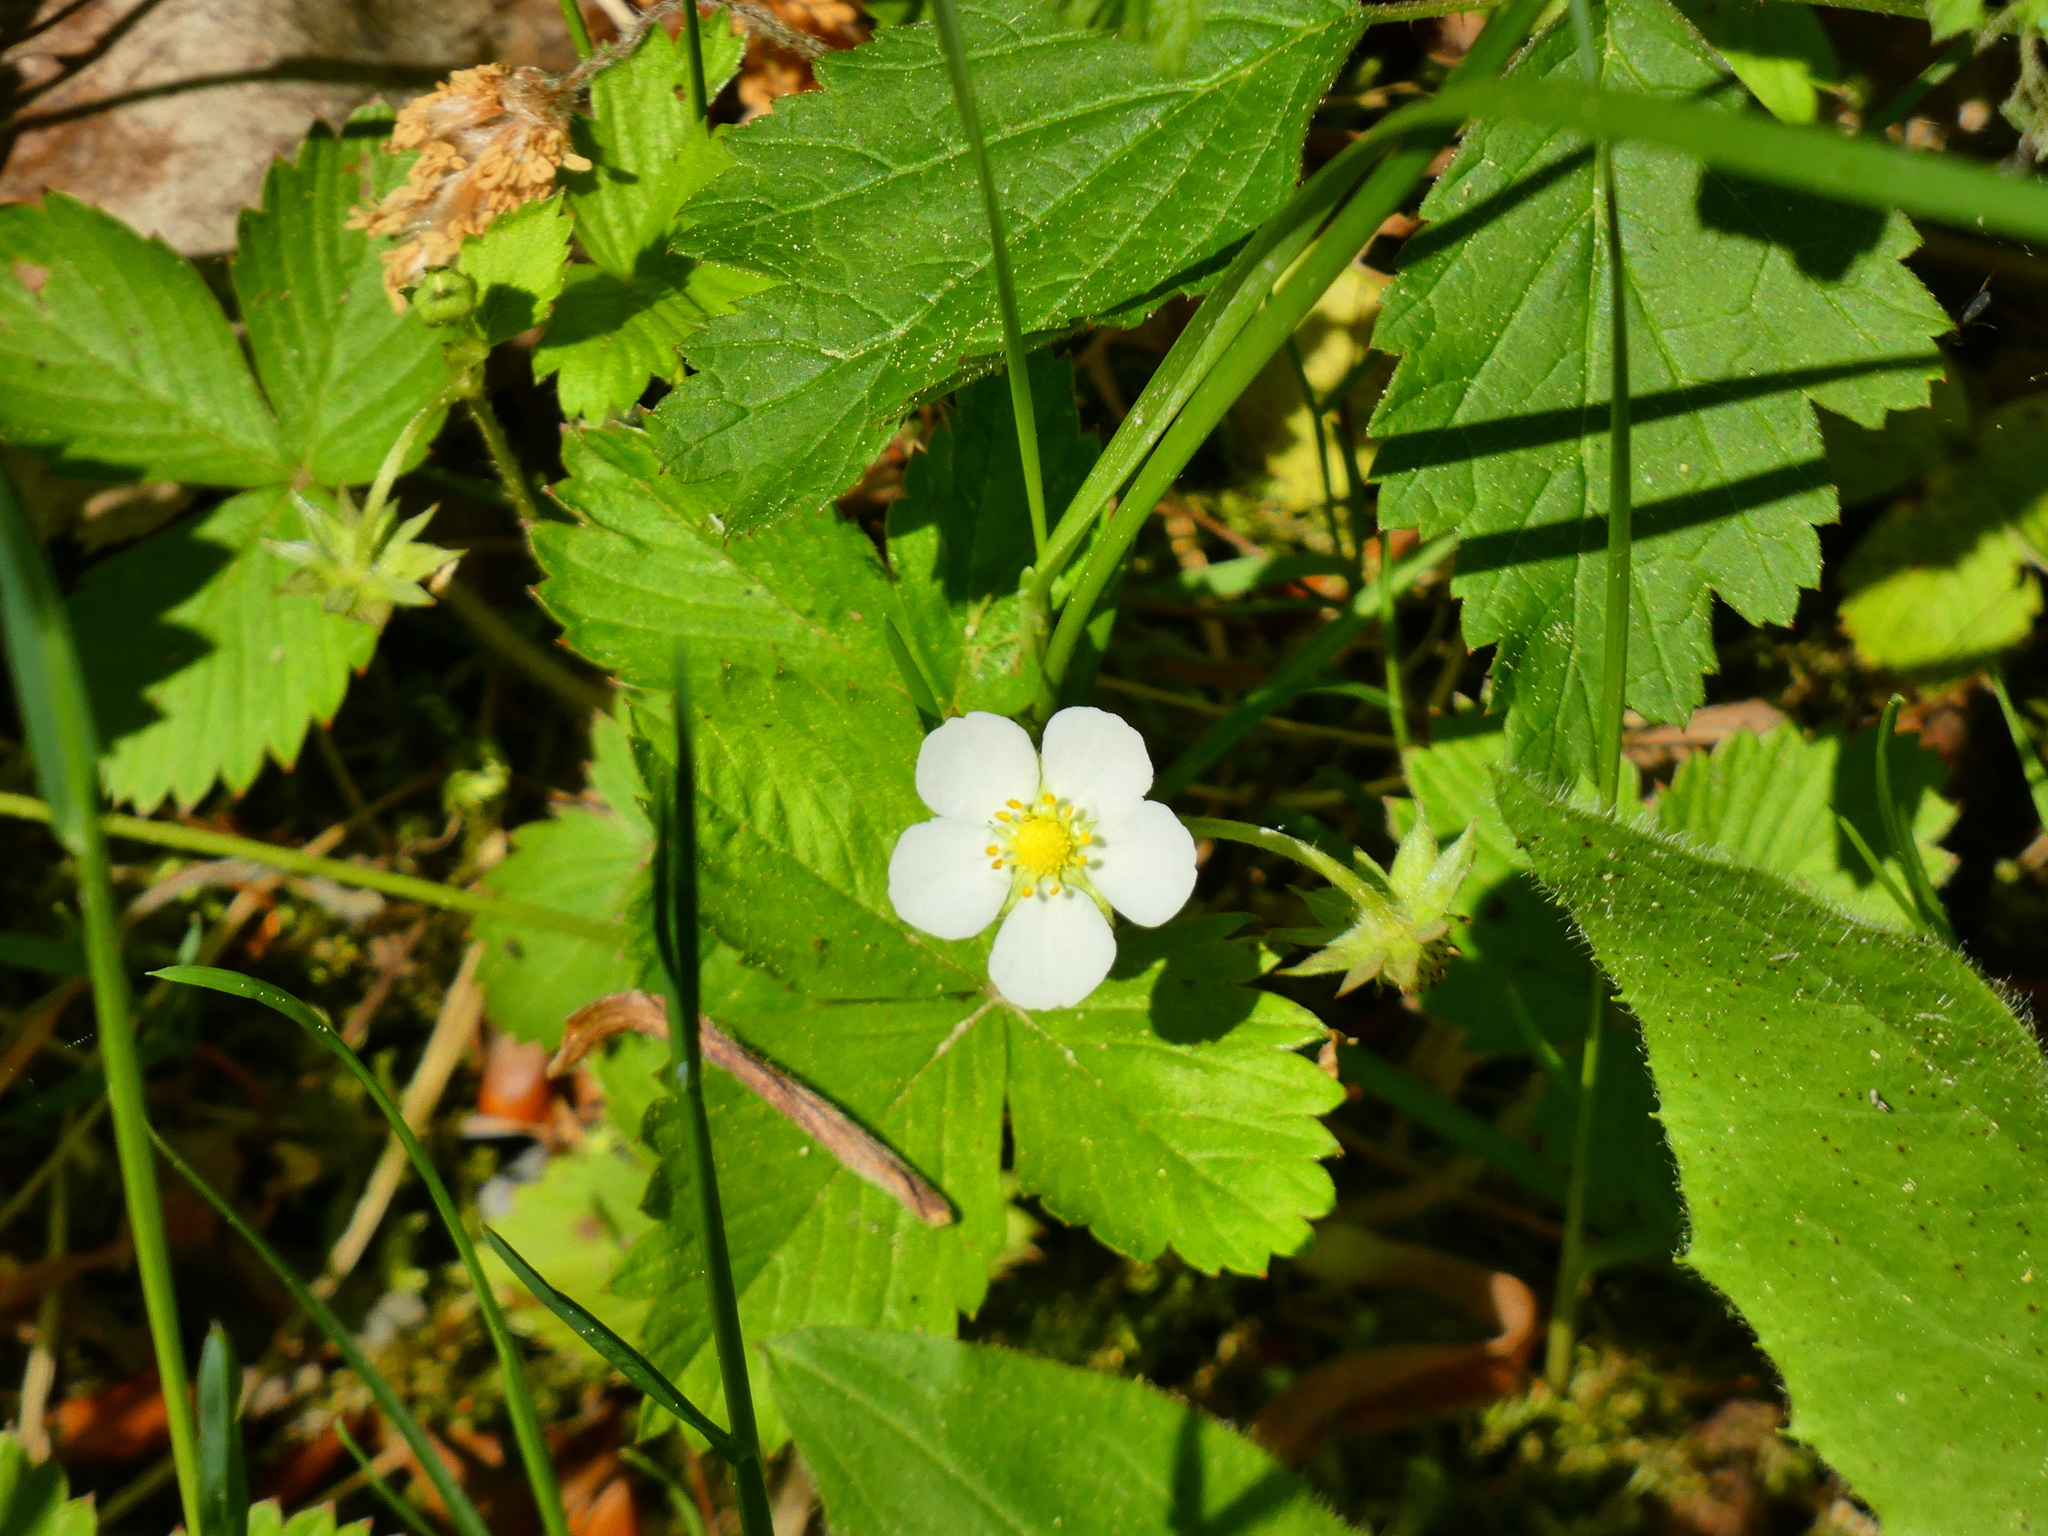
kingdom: Plantae
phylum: Tracheophyta
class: Magnoliopsida
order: Rosales
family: Rosaceae
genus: Fragaria
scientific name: Fragaria vesca
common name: Wild strawberry
